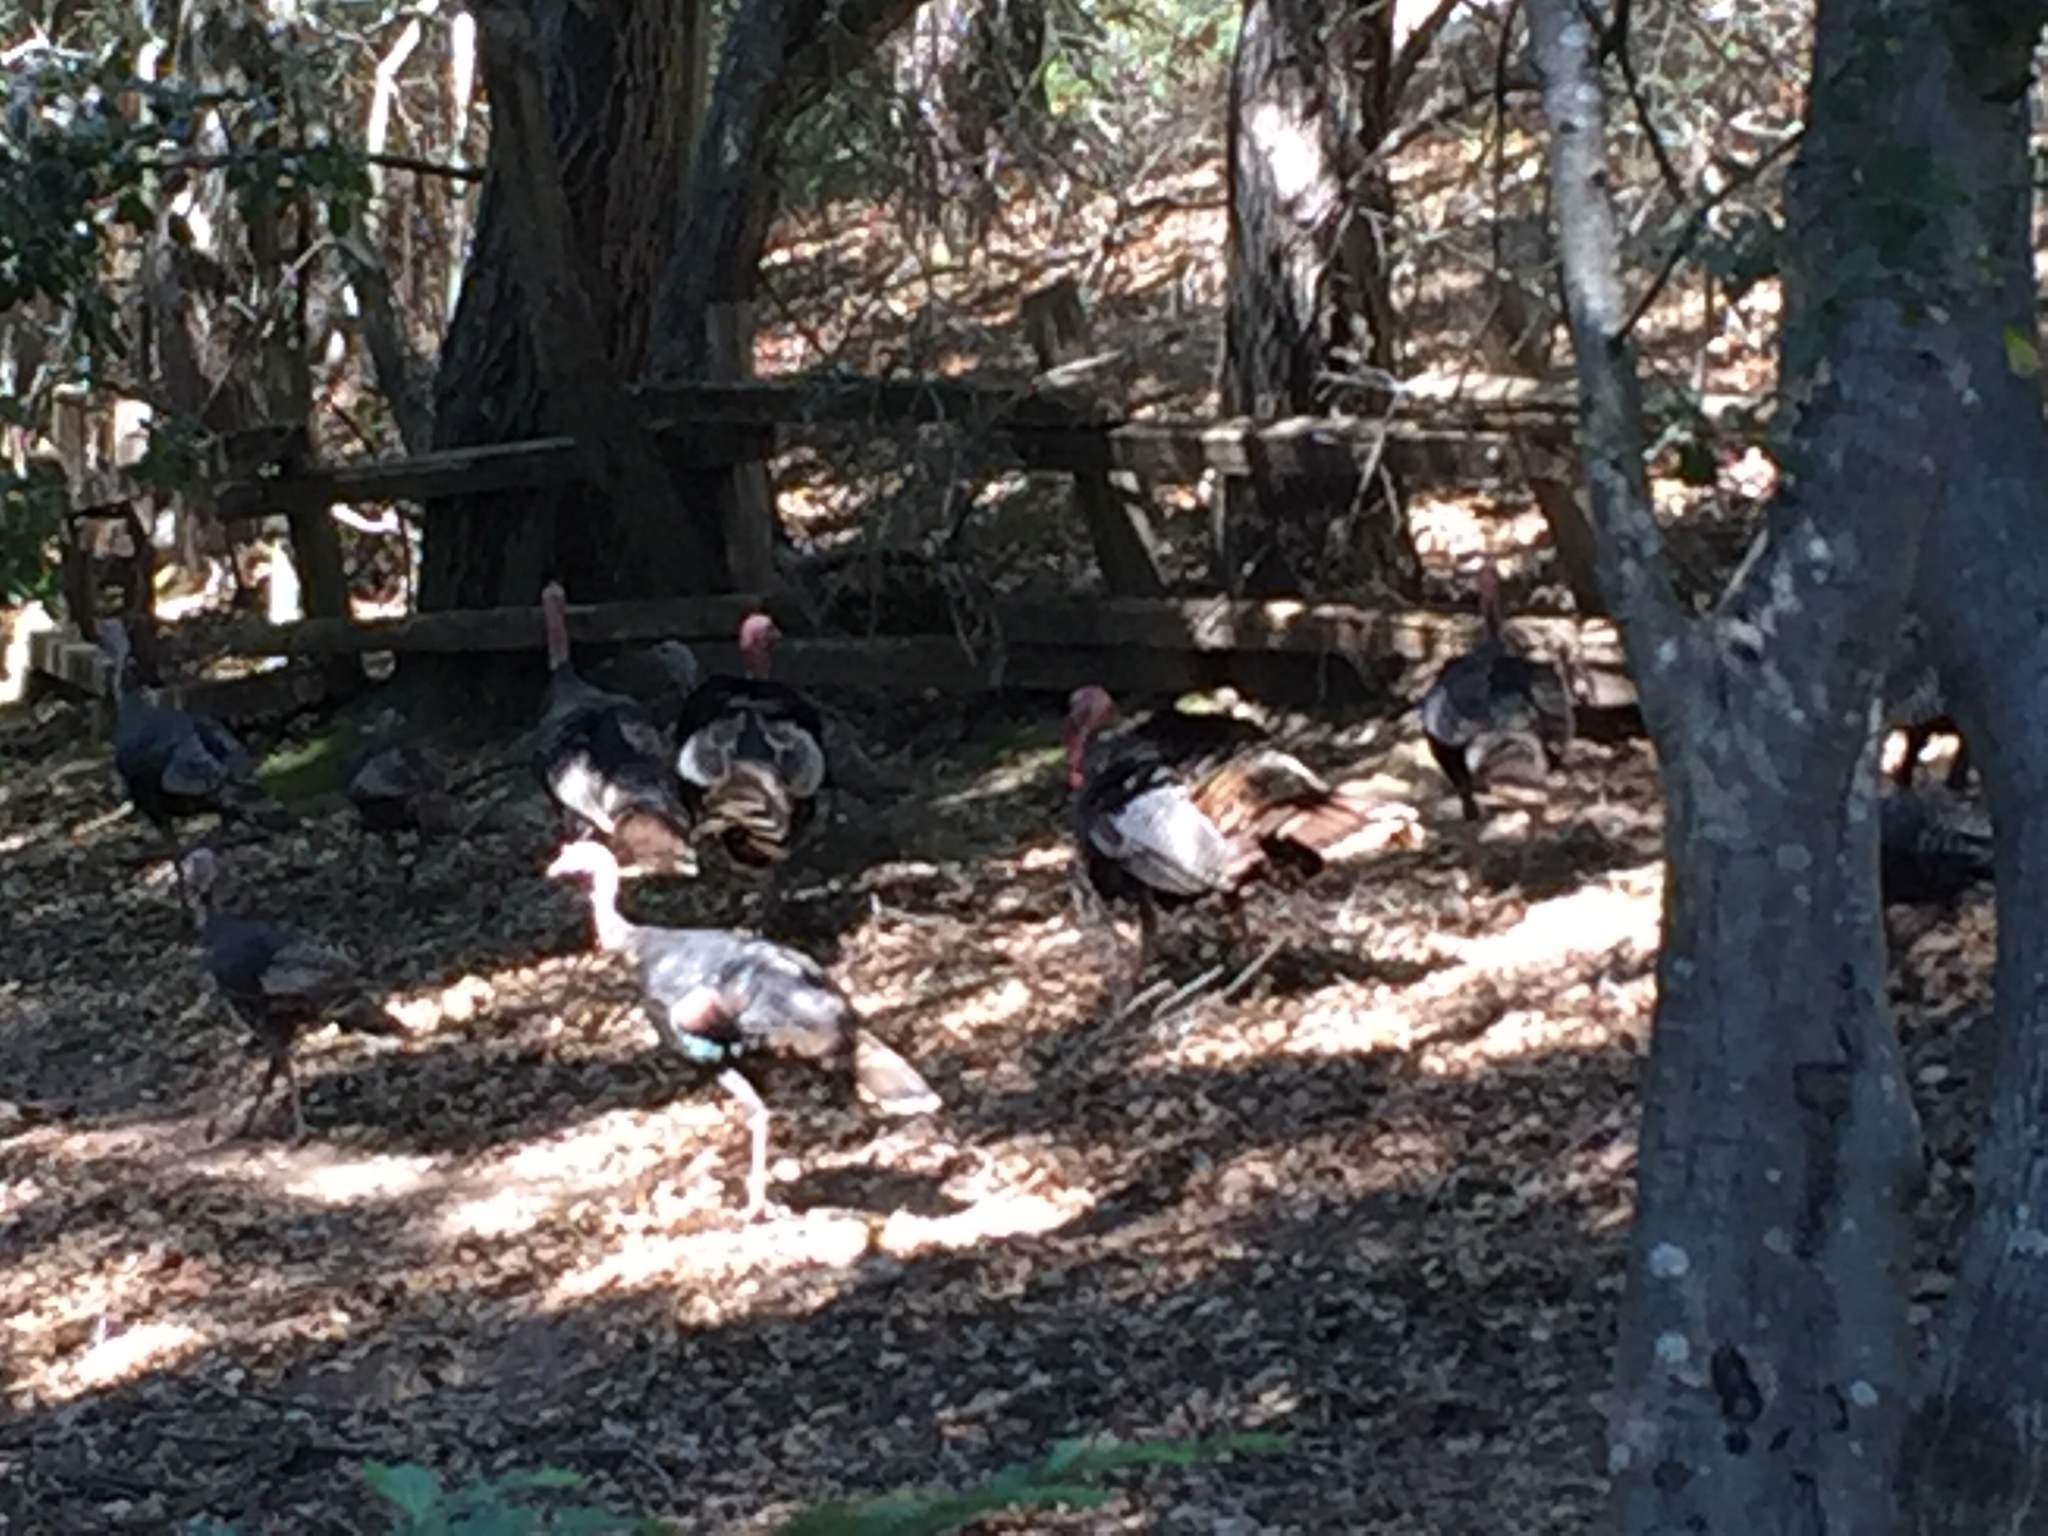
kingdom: Animalia
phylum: Chordata
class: Aves
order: Galliformes
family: Phasianidae
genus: Meleagris
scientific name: Meleagris gallopavo
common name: Wild turkey
